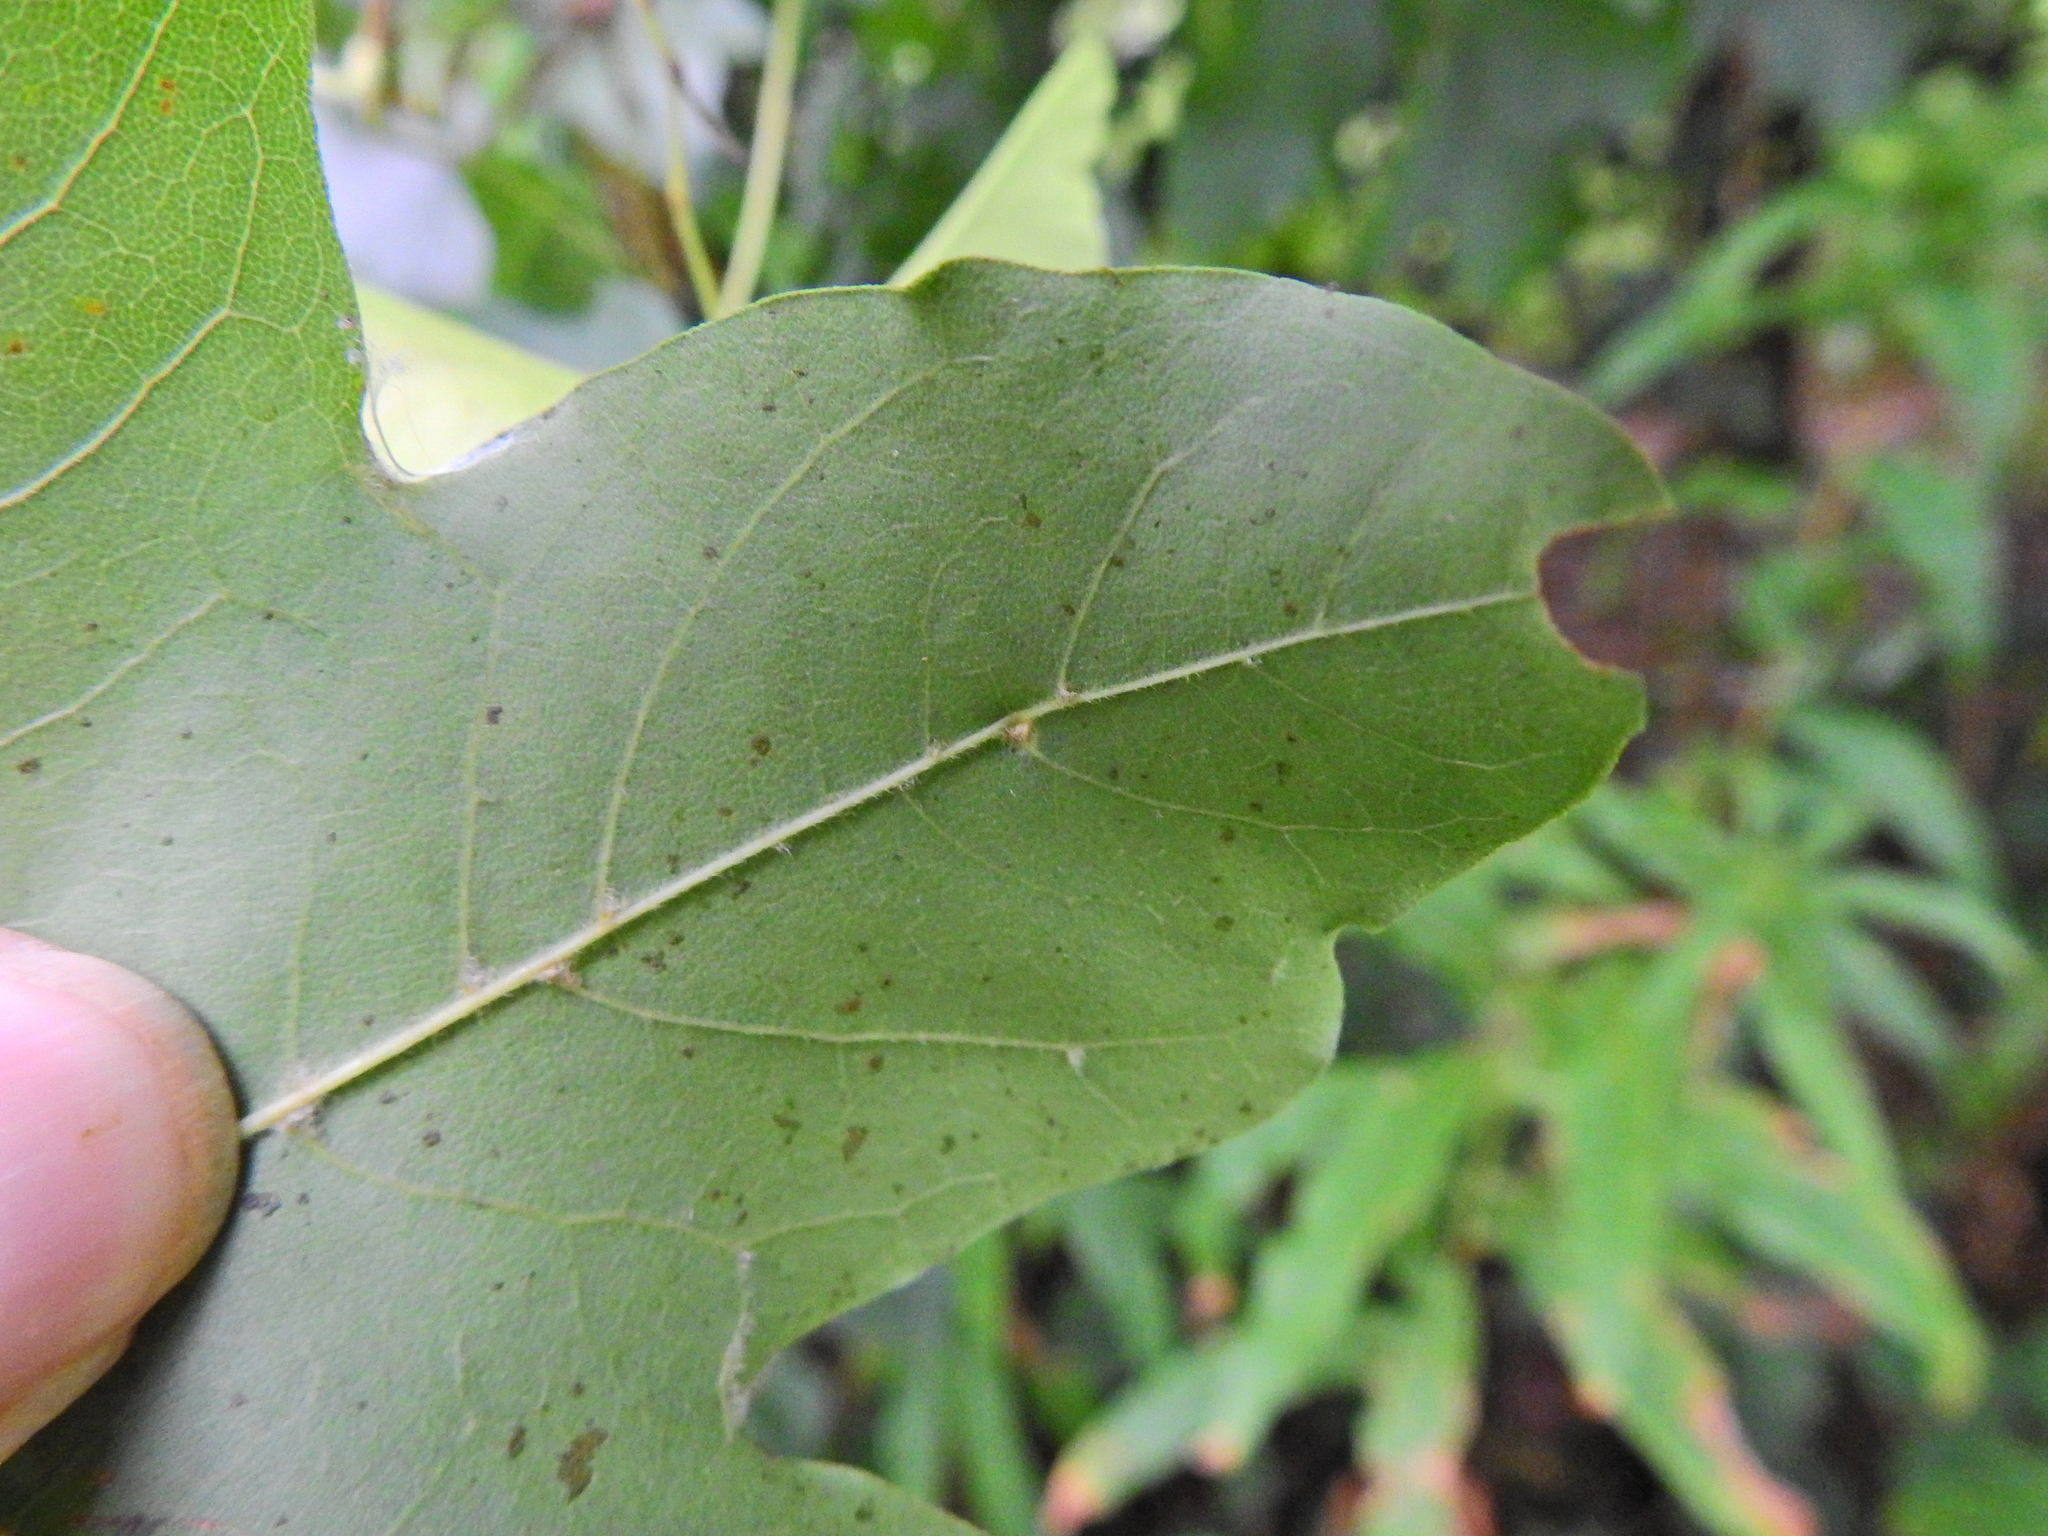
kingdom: Animalia
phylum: Arthropoda
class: Arachnida
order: Trombidiformes
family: Eriophyidae
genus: Aceria
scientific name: Aceria macrochelus
